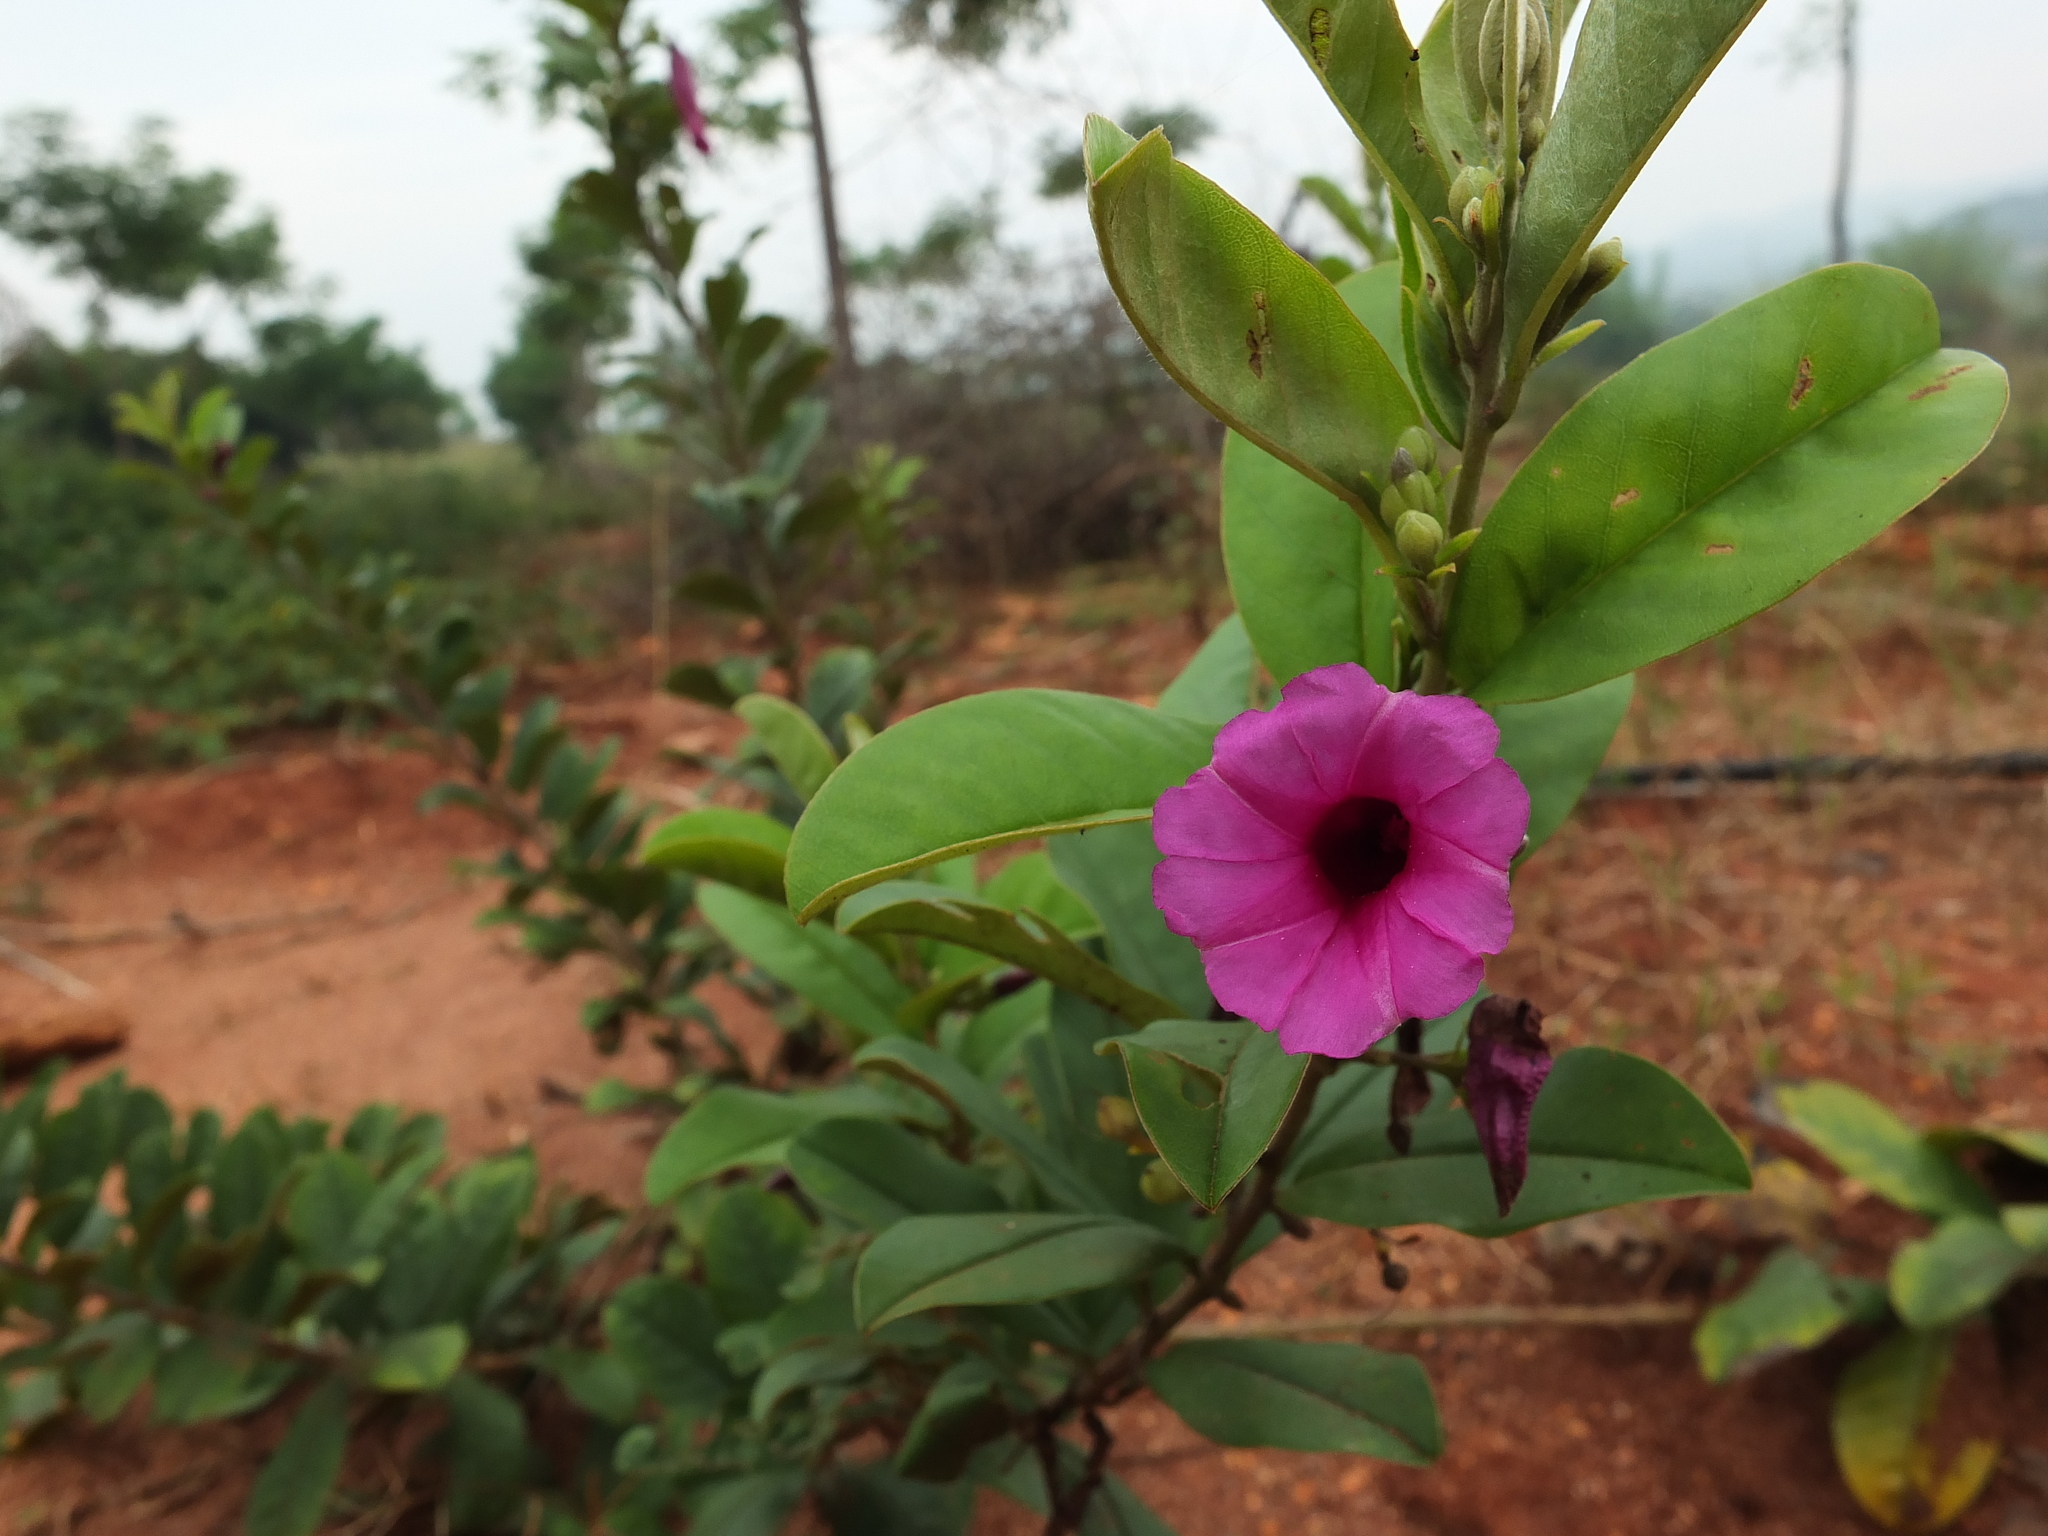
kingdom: Plantae
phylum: Tracheophyta
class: Magnoliopsida
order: Solanales
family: Convolvulaceae
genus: Argyreia
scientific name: Argyreia cuneata
